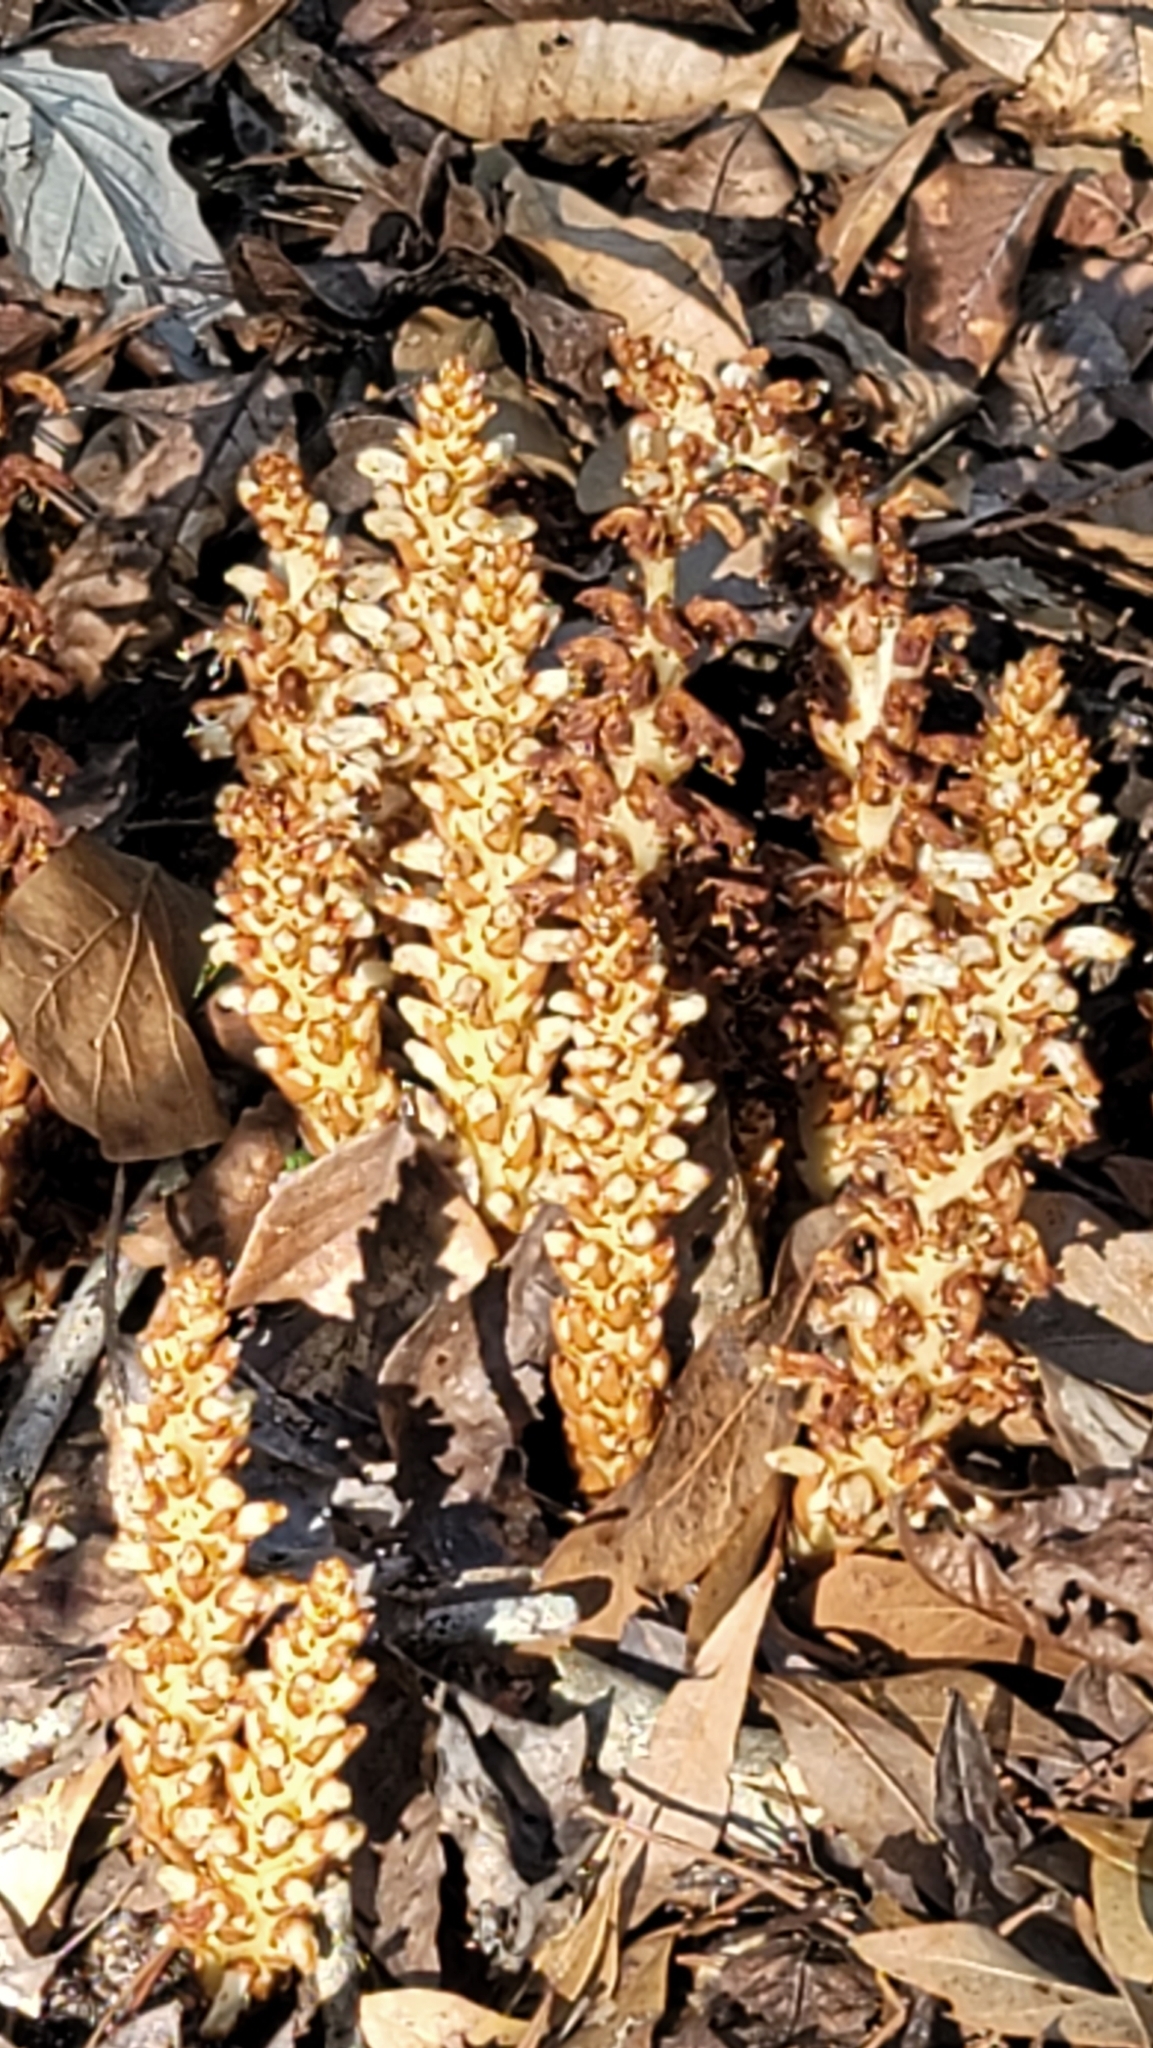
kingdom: Plantae
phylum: Tracheophyta
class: Magnoliopsida
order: Lamiales
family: Orobanchaceae
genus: Conopholis
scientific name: Conopholis americana
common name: American cancer-root
